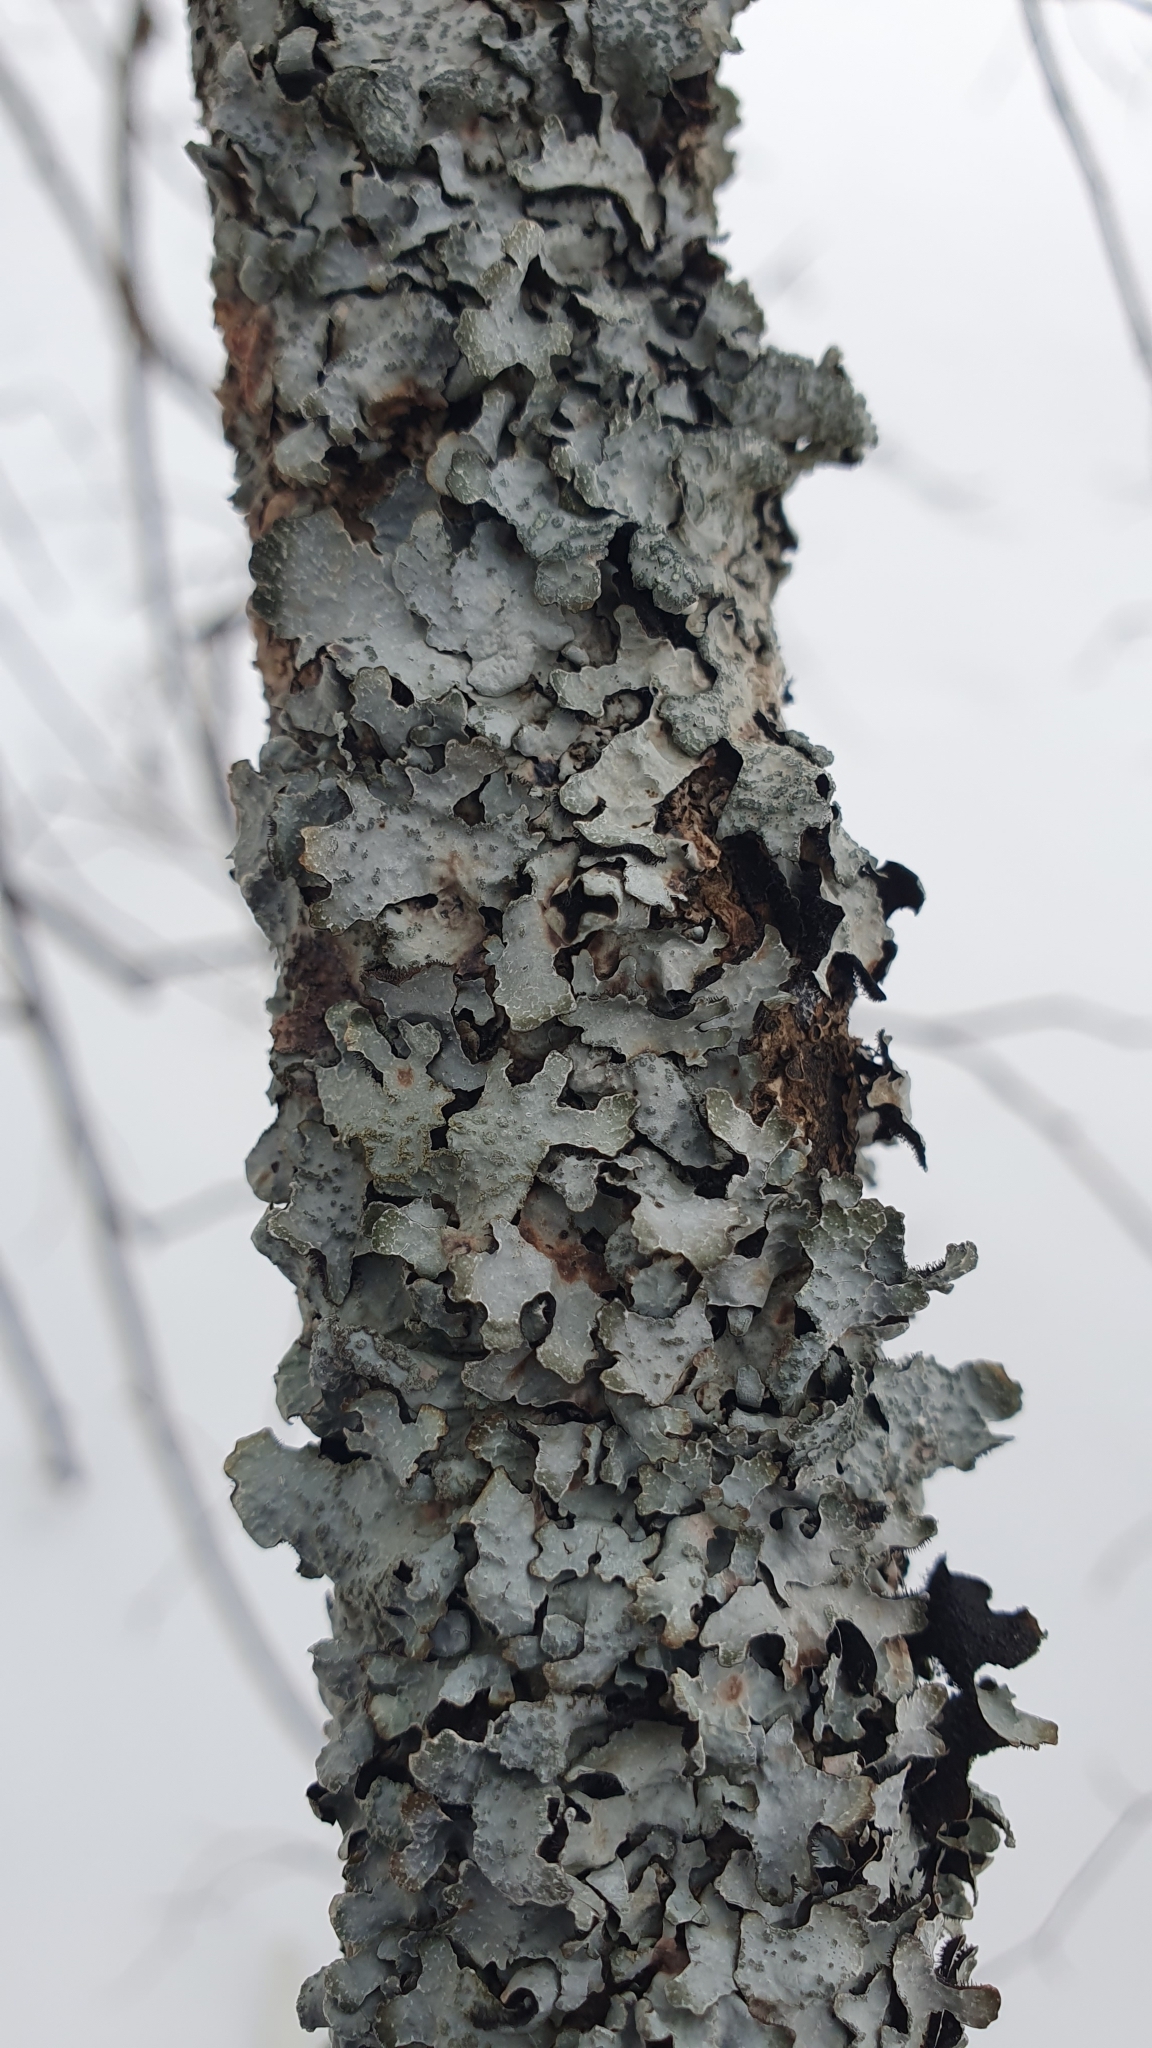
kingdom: Fungi
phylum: Ascomycota
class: Lecanoromycetes
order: Lecanorales
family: Parmeliaceae
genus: Parmelia
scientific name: Parmelia sulcata
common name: Netted shield lichen
